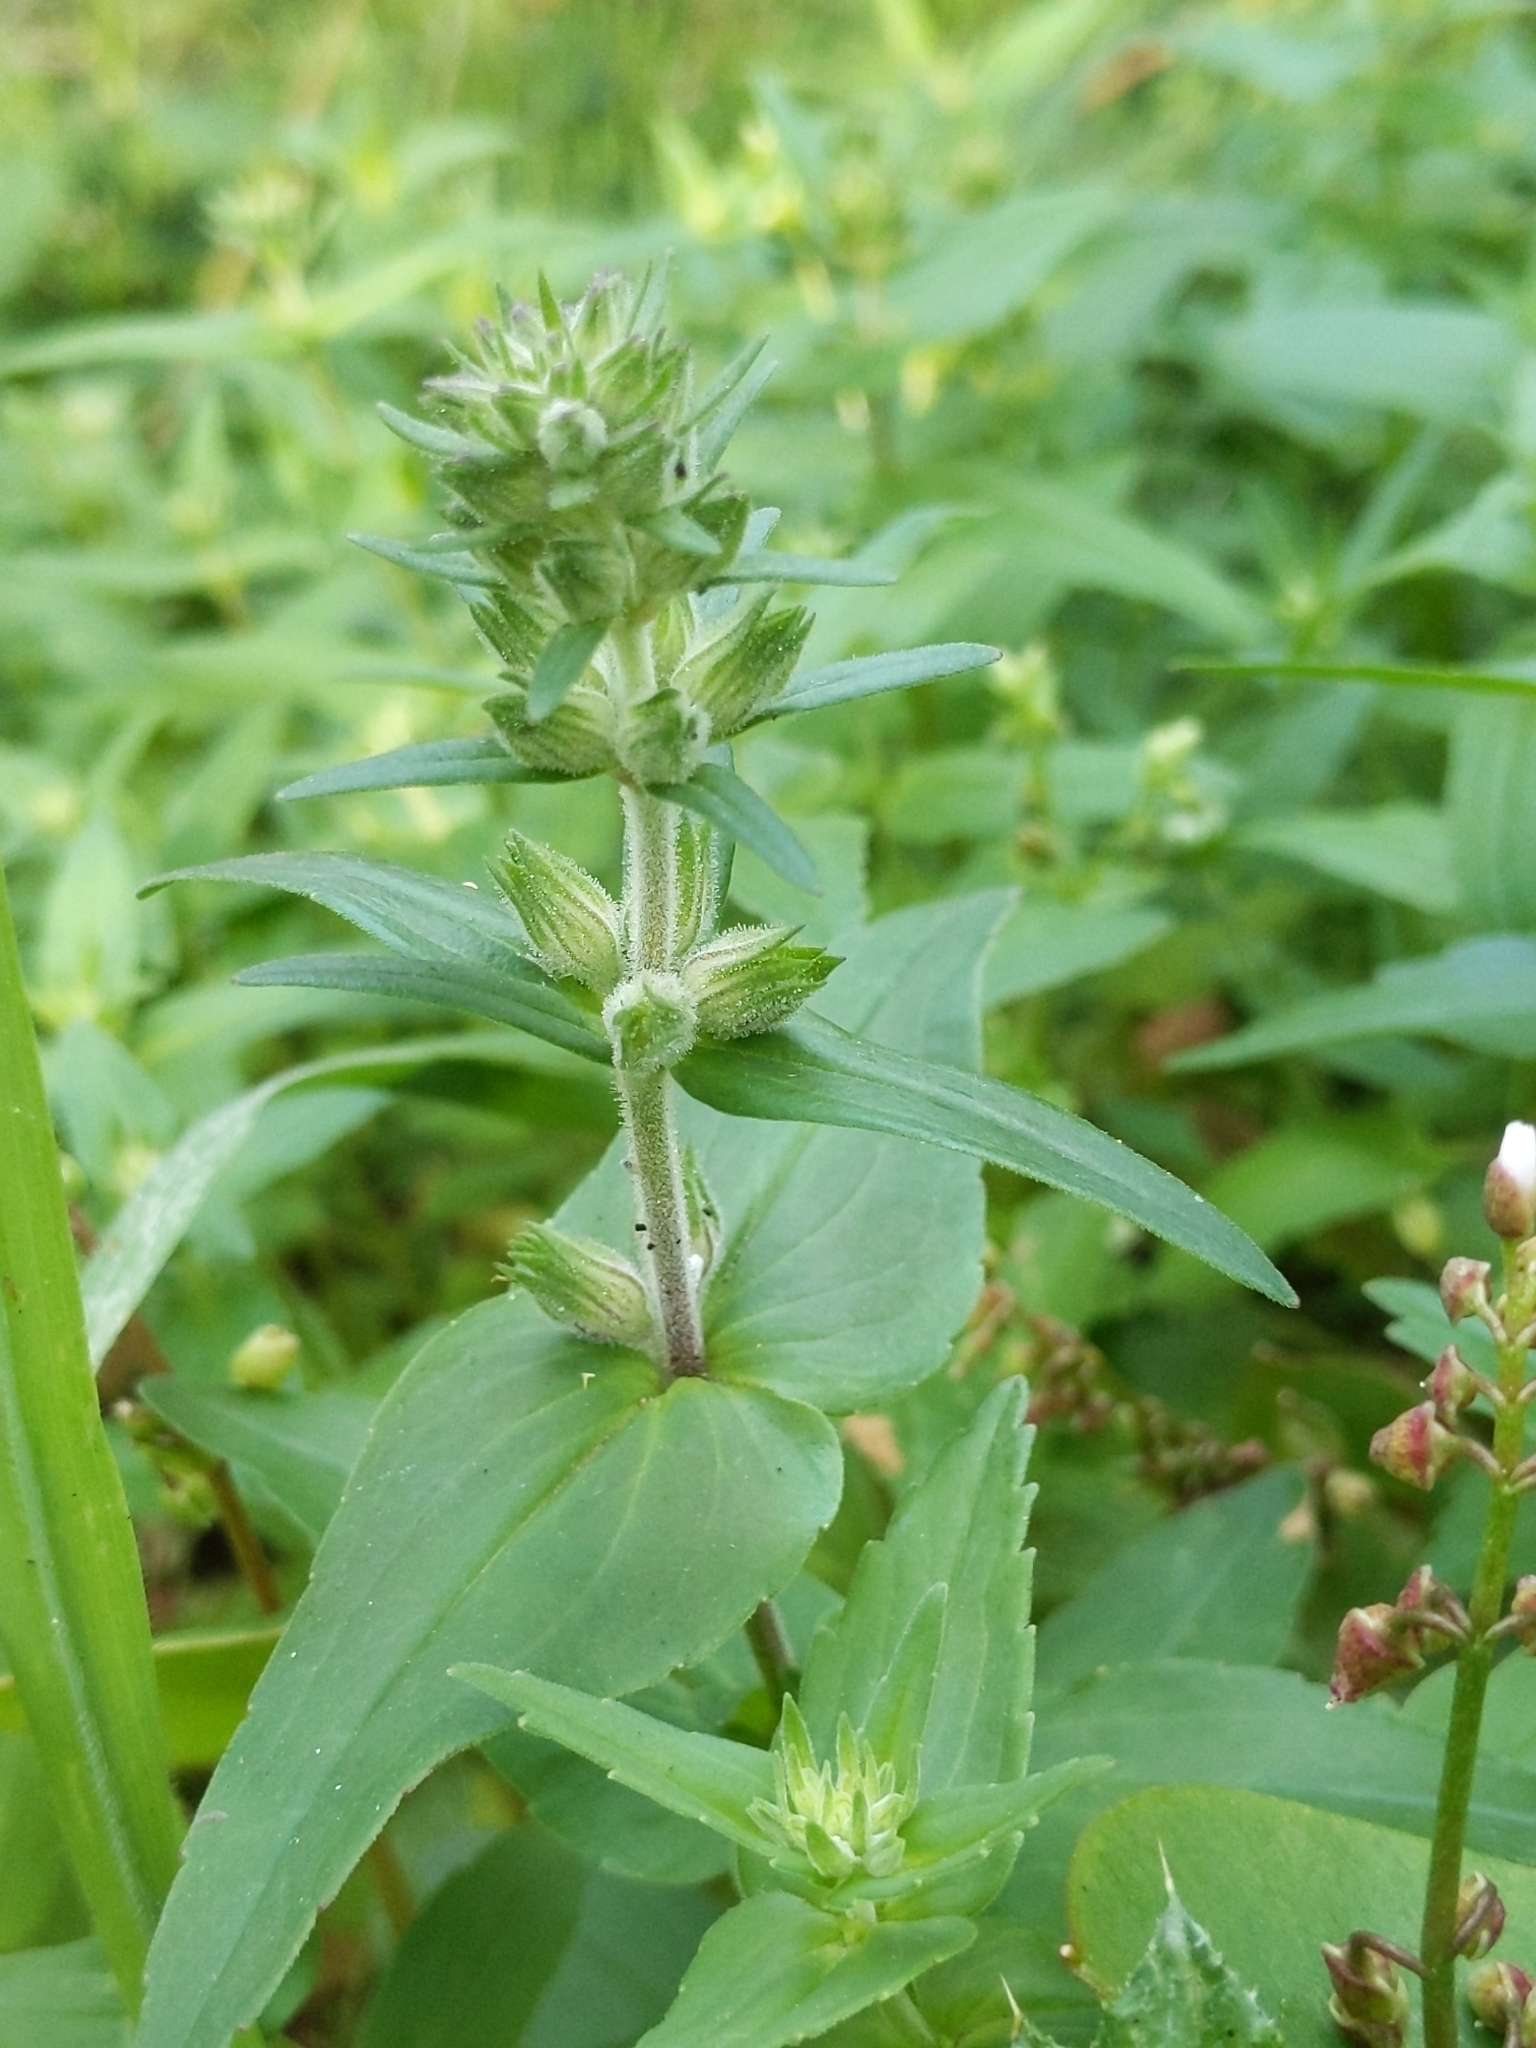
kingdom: Plantae
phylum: Tracheophyta
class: Magnoliopsida
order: Lamiales
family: Plantaginaceae
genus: Collinsia
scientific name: Collinsia heterophylla
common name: Chinese-houses
